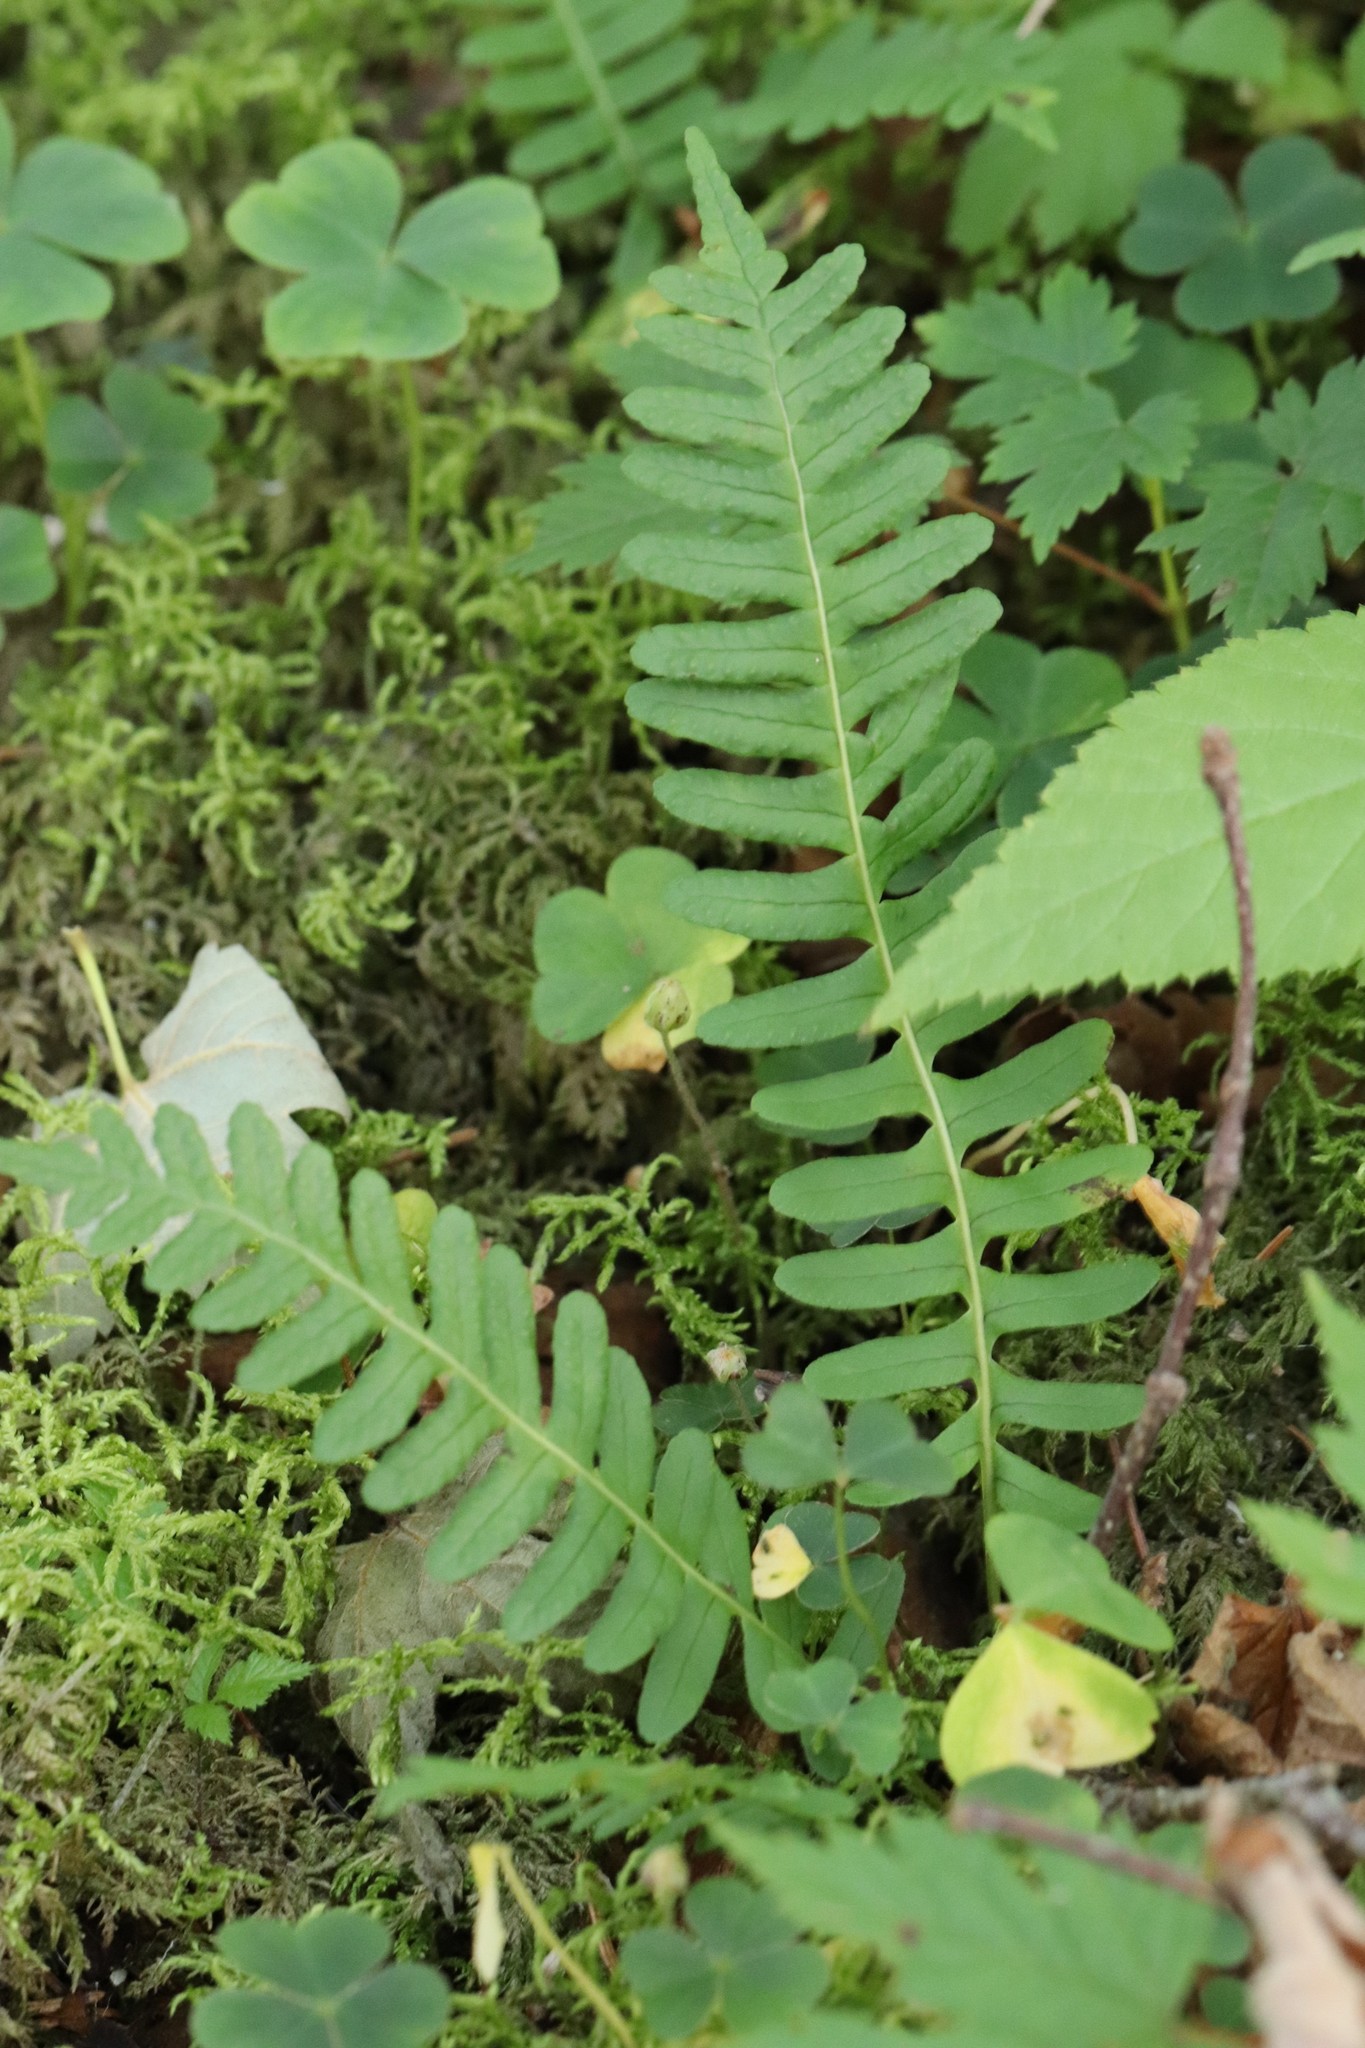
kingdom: Plantae
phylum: Tracheophyta
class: Polypodiopsida
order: Polypodiales
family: Polypodiaceae
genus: Polypodium
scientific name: Polypodium sibiricum
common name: Siberian polypody
